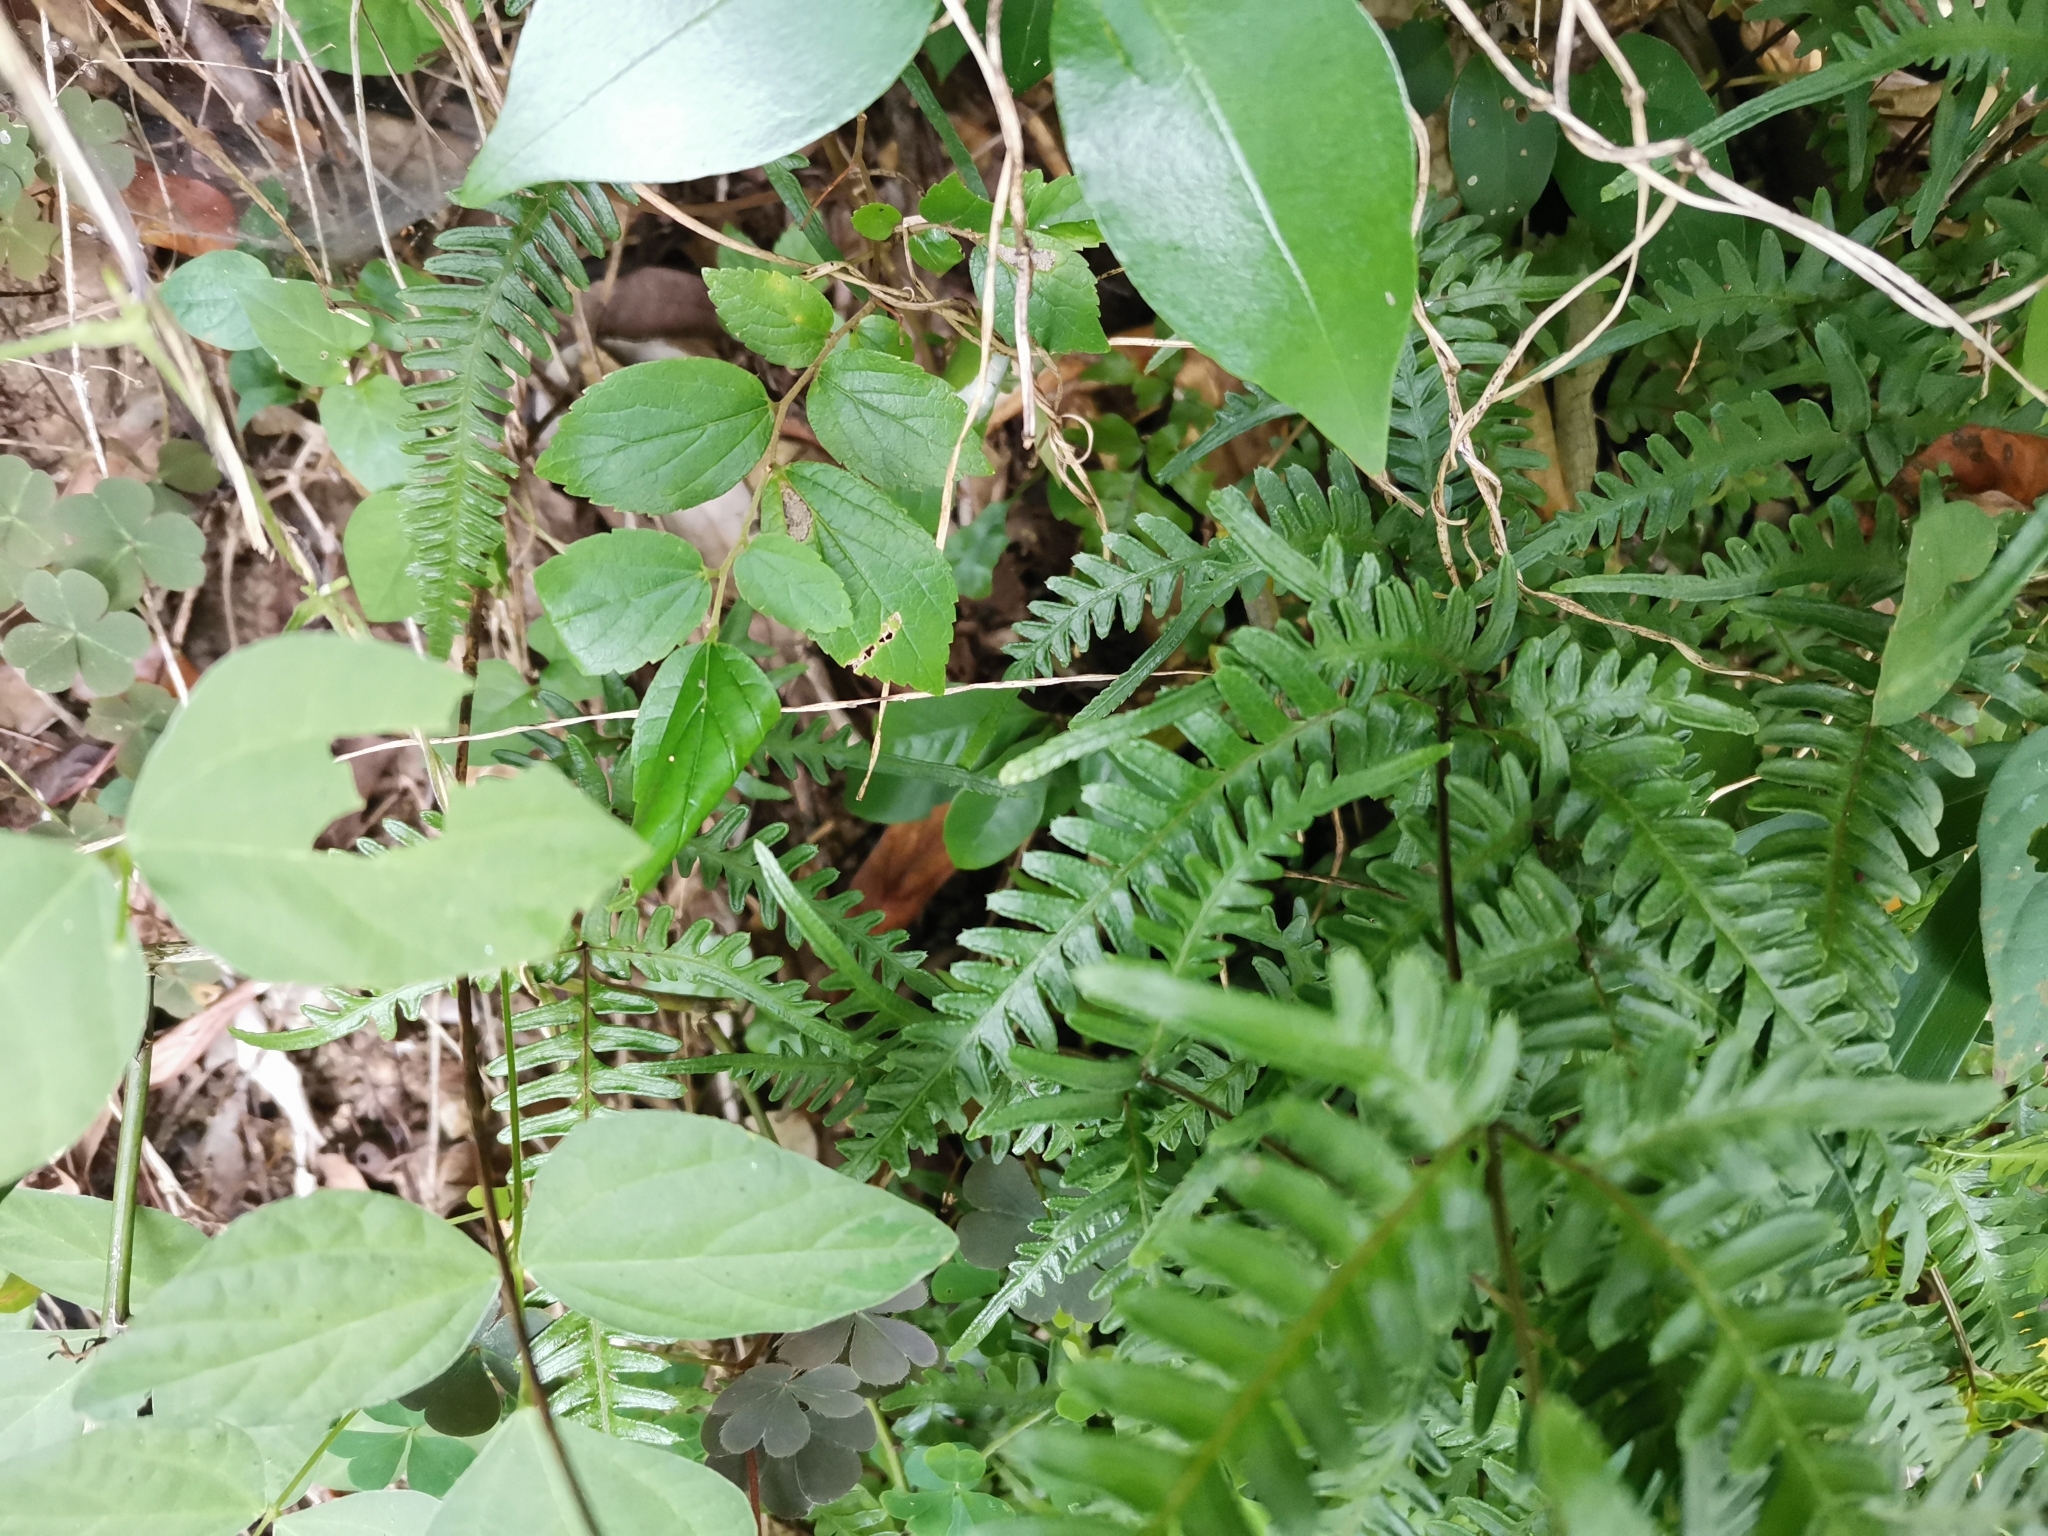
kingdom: Plantae
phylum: Tracheophyta
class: Polypodiopsida
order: Polypodiales
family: Pteridaceae
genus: Pteris
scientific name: Pteris dispar
